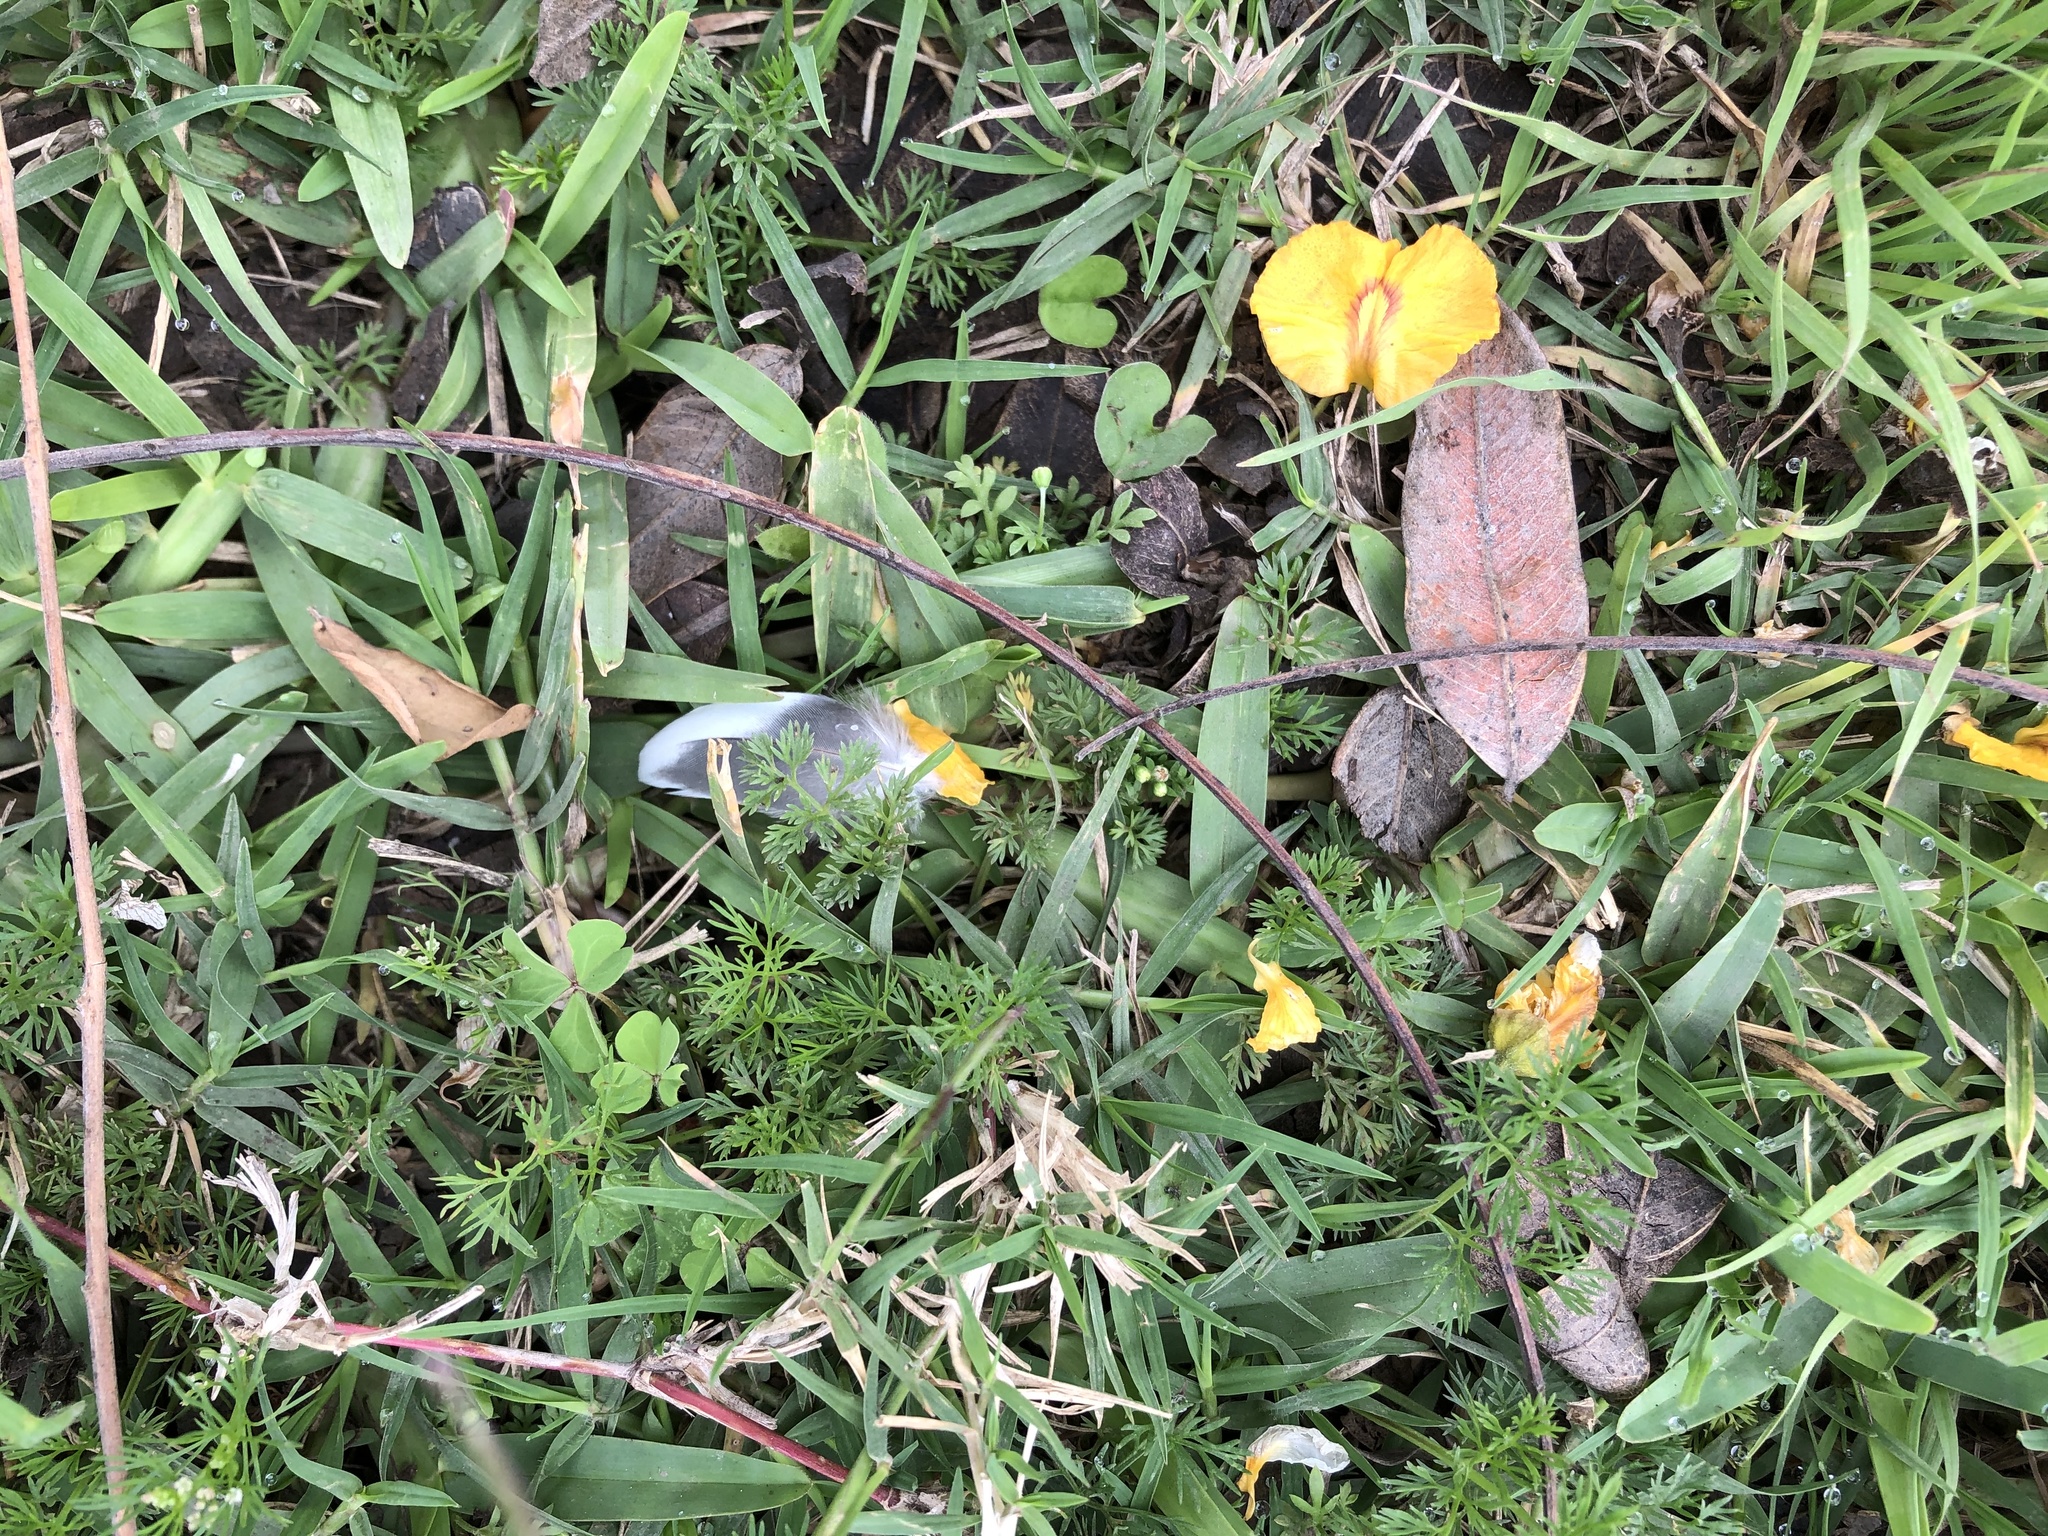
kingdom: Animalia
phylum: Chordata
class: Aves
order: Columbiformes
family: Columbidae
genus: Columba
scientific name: Columba livia
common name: Rock pigeon
